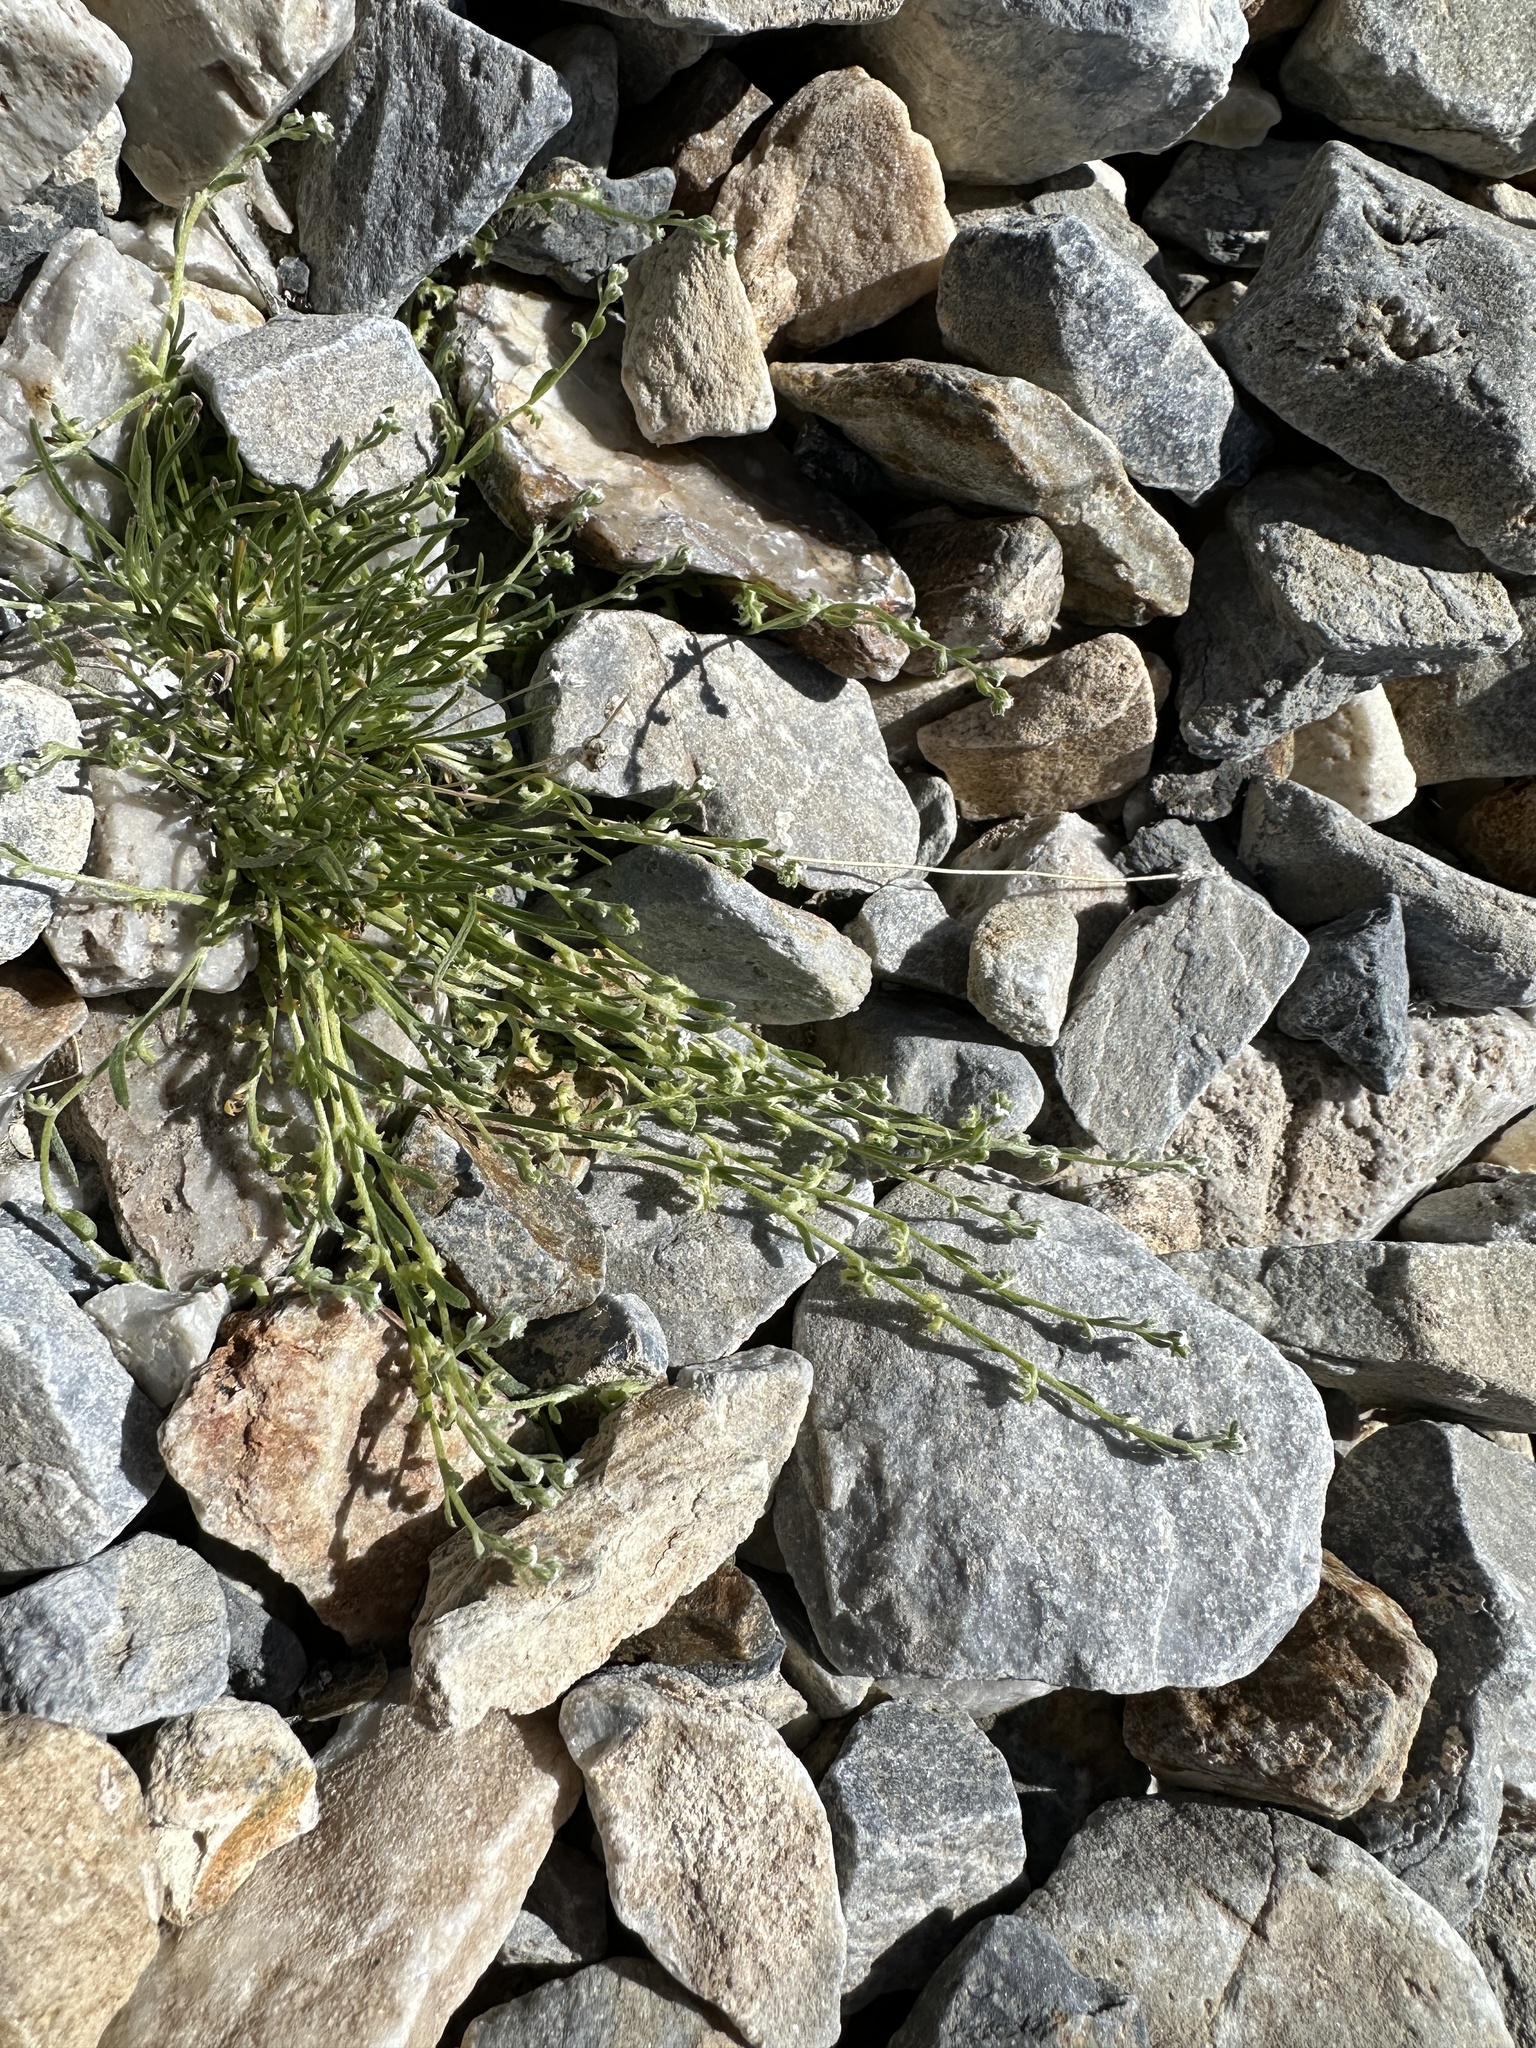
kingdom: Plantae
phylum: Tracheophyta
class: Magnoliopsida
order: Boraginales
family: Boraginaceae
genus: Pectocarya
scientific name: Pectocarya heterocarpa
